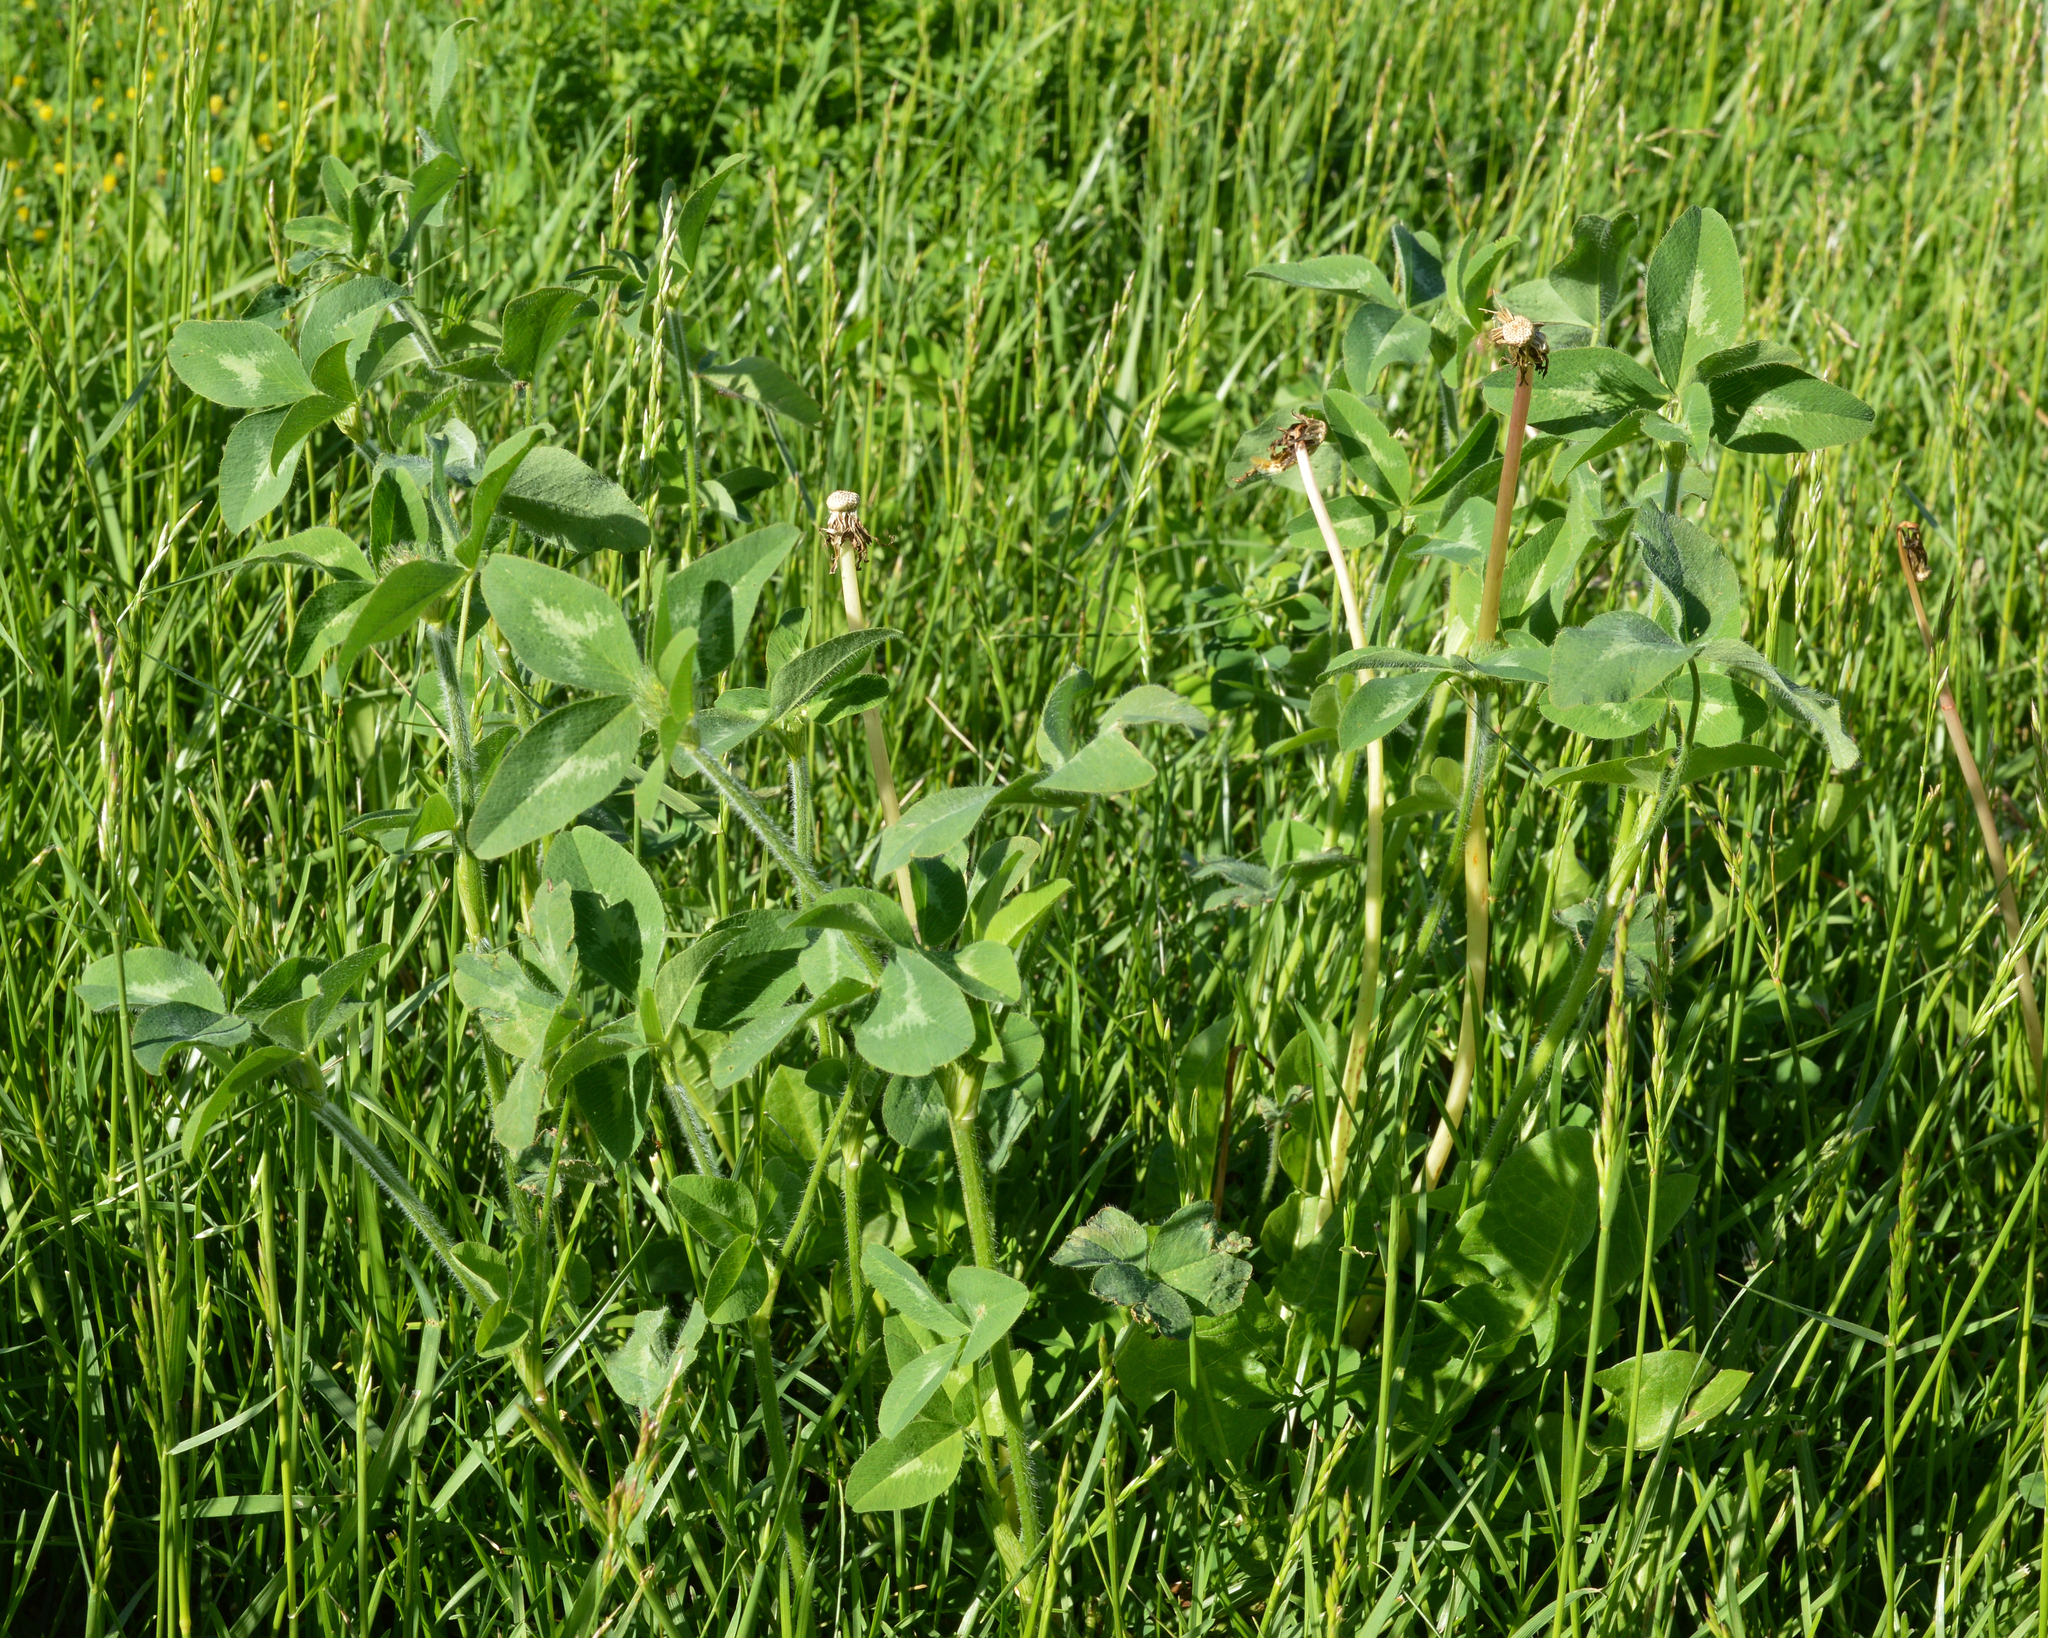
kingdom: Plantae
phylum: Tracheophyta
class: Magnoliopsida
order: Fabales
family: Fabaceae
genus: Trifolium
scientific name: Trifolium pratense
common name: Red clover
